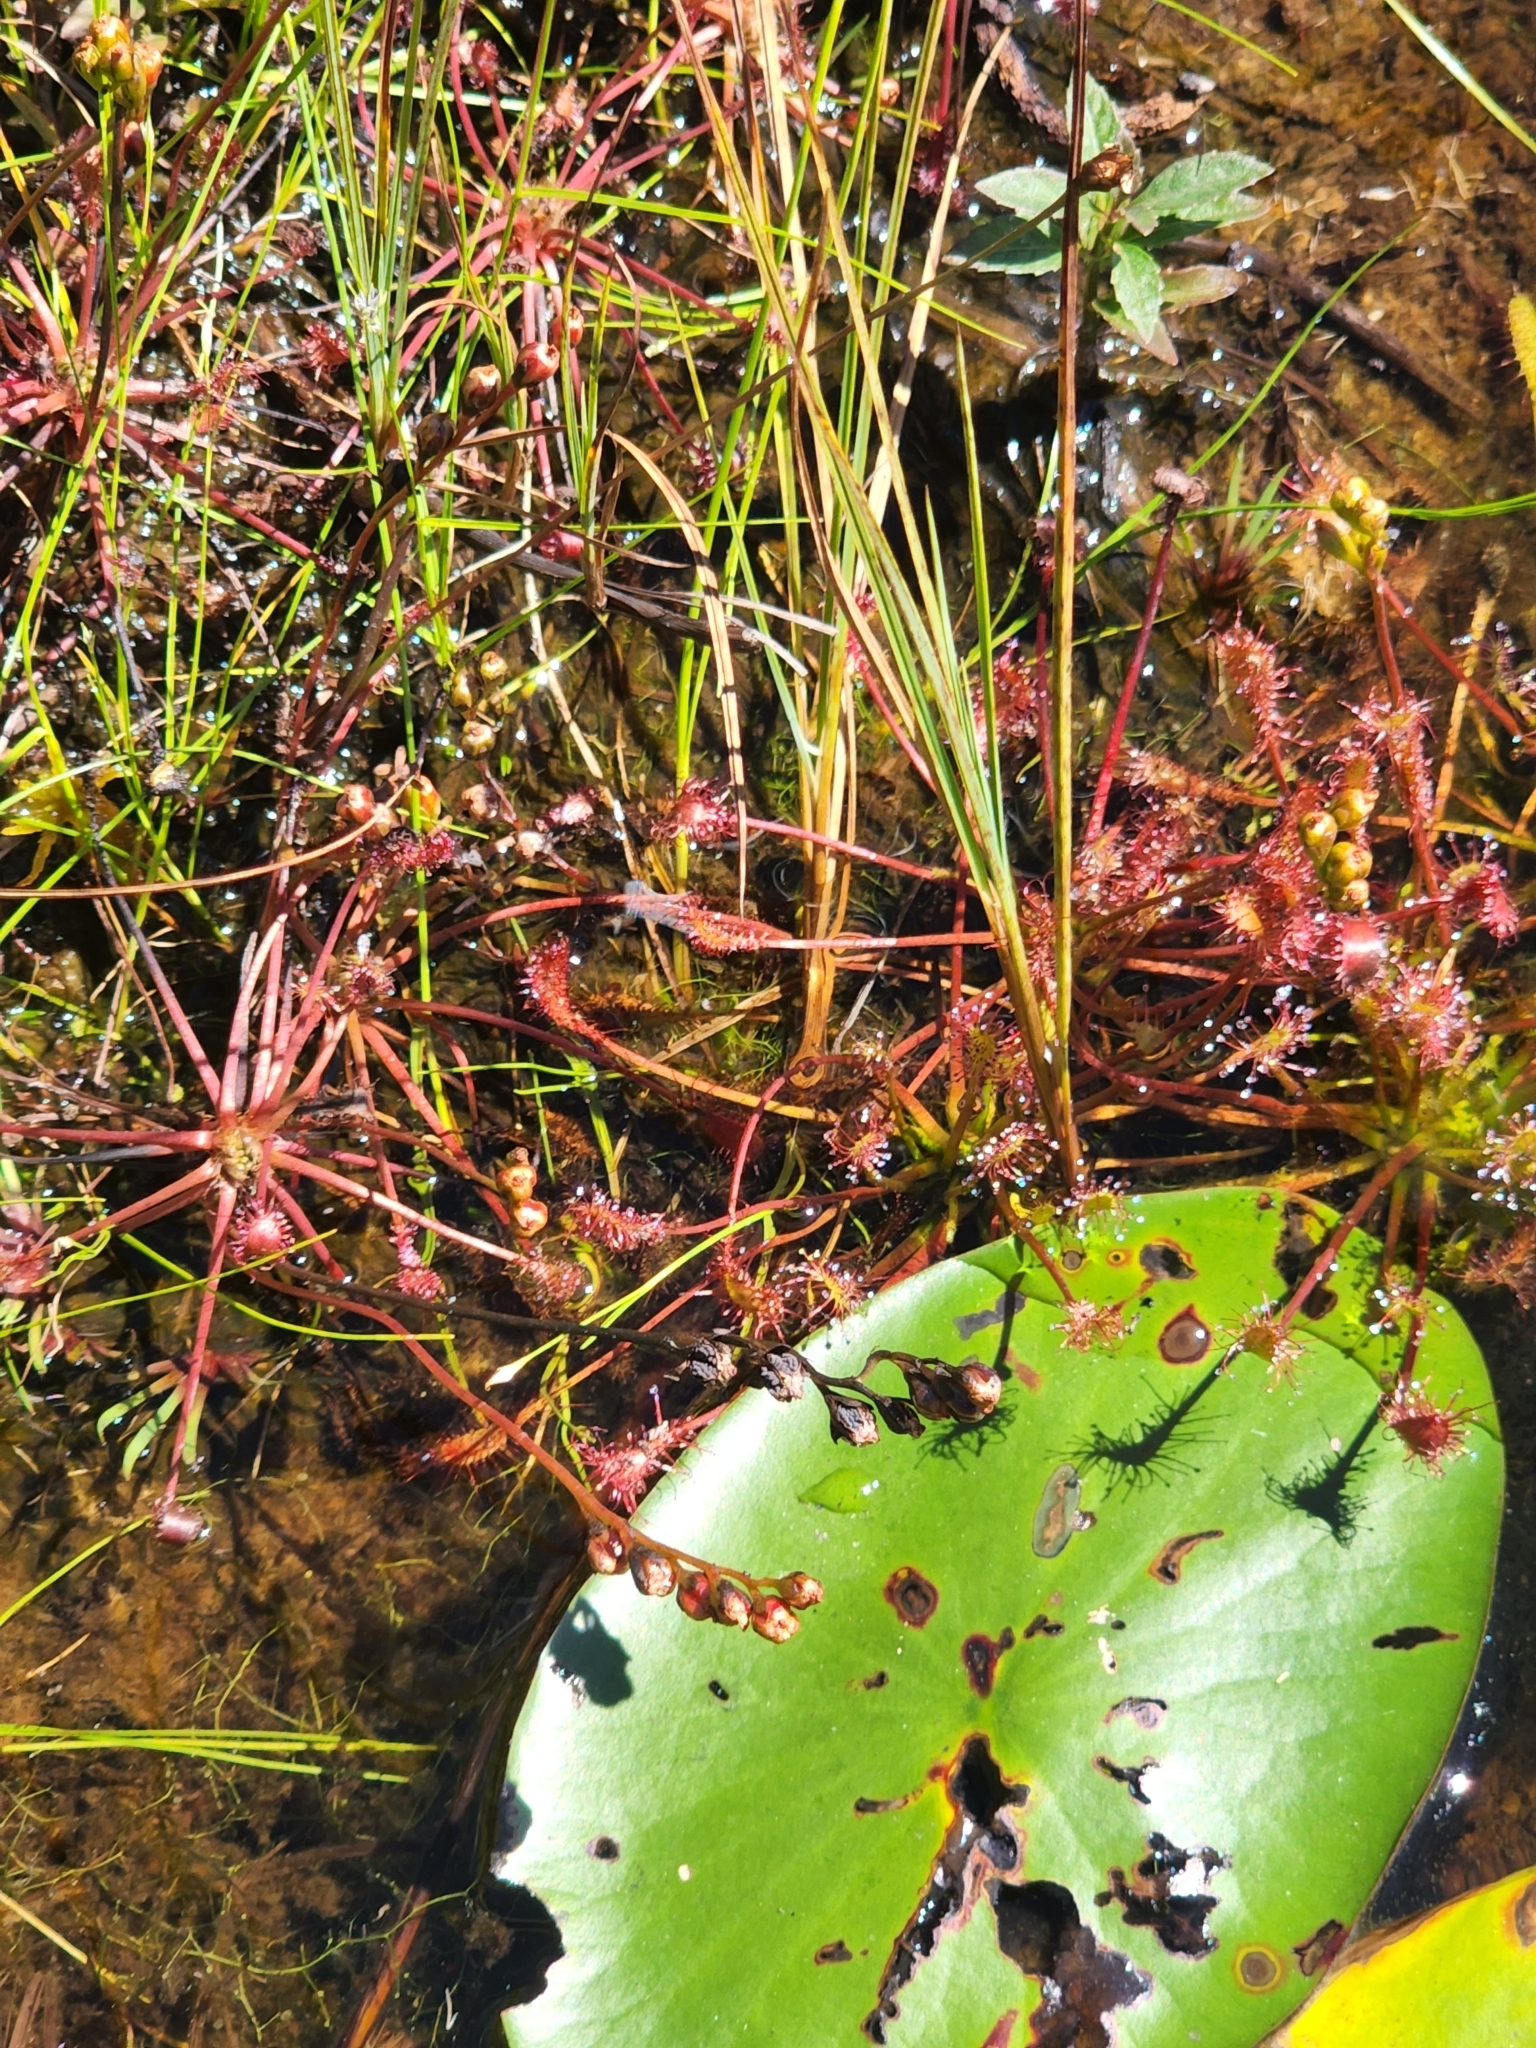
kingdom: Plantae
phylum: Tracheophyta
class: Magnoliopsida
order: Caryophyllales
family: Droseraceae
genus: Drosera
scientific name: Drosera intermedia
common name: Oblong-leaved sundew
